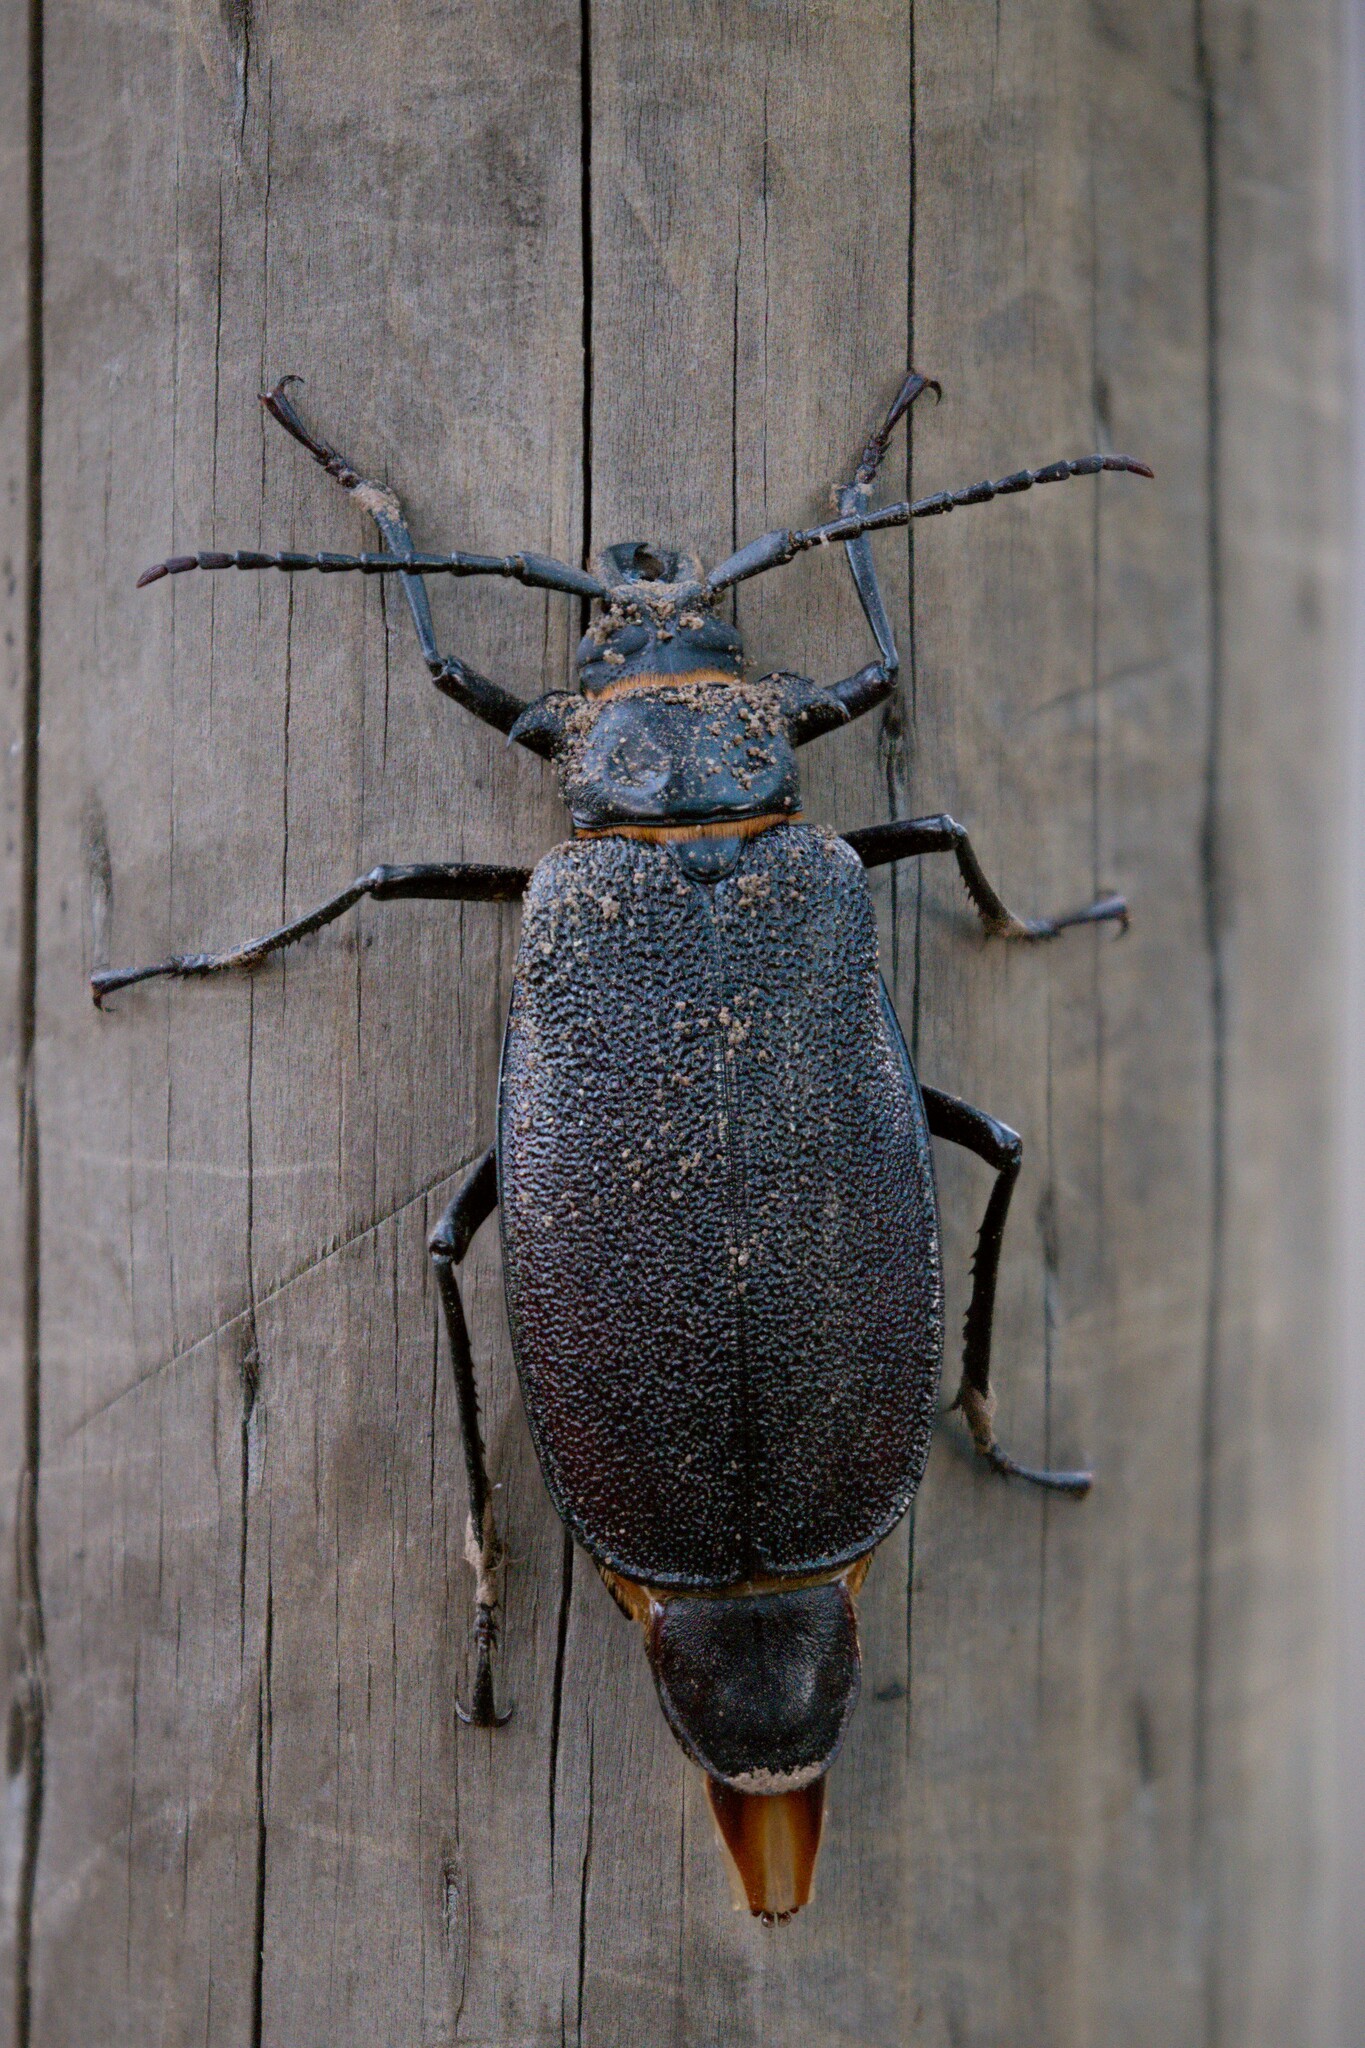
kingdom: Animalia
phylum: Arthropoda
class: Insecta
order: Coleoptera
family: Cerambycidae
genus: Acanthinodera
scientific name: Acanthinodera cumingii
